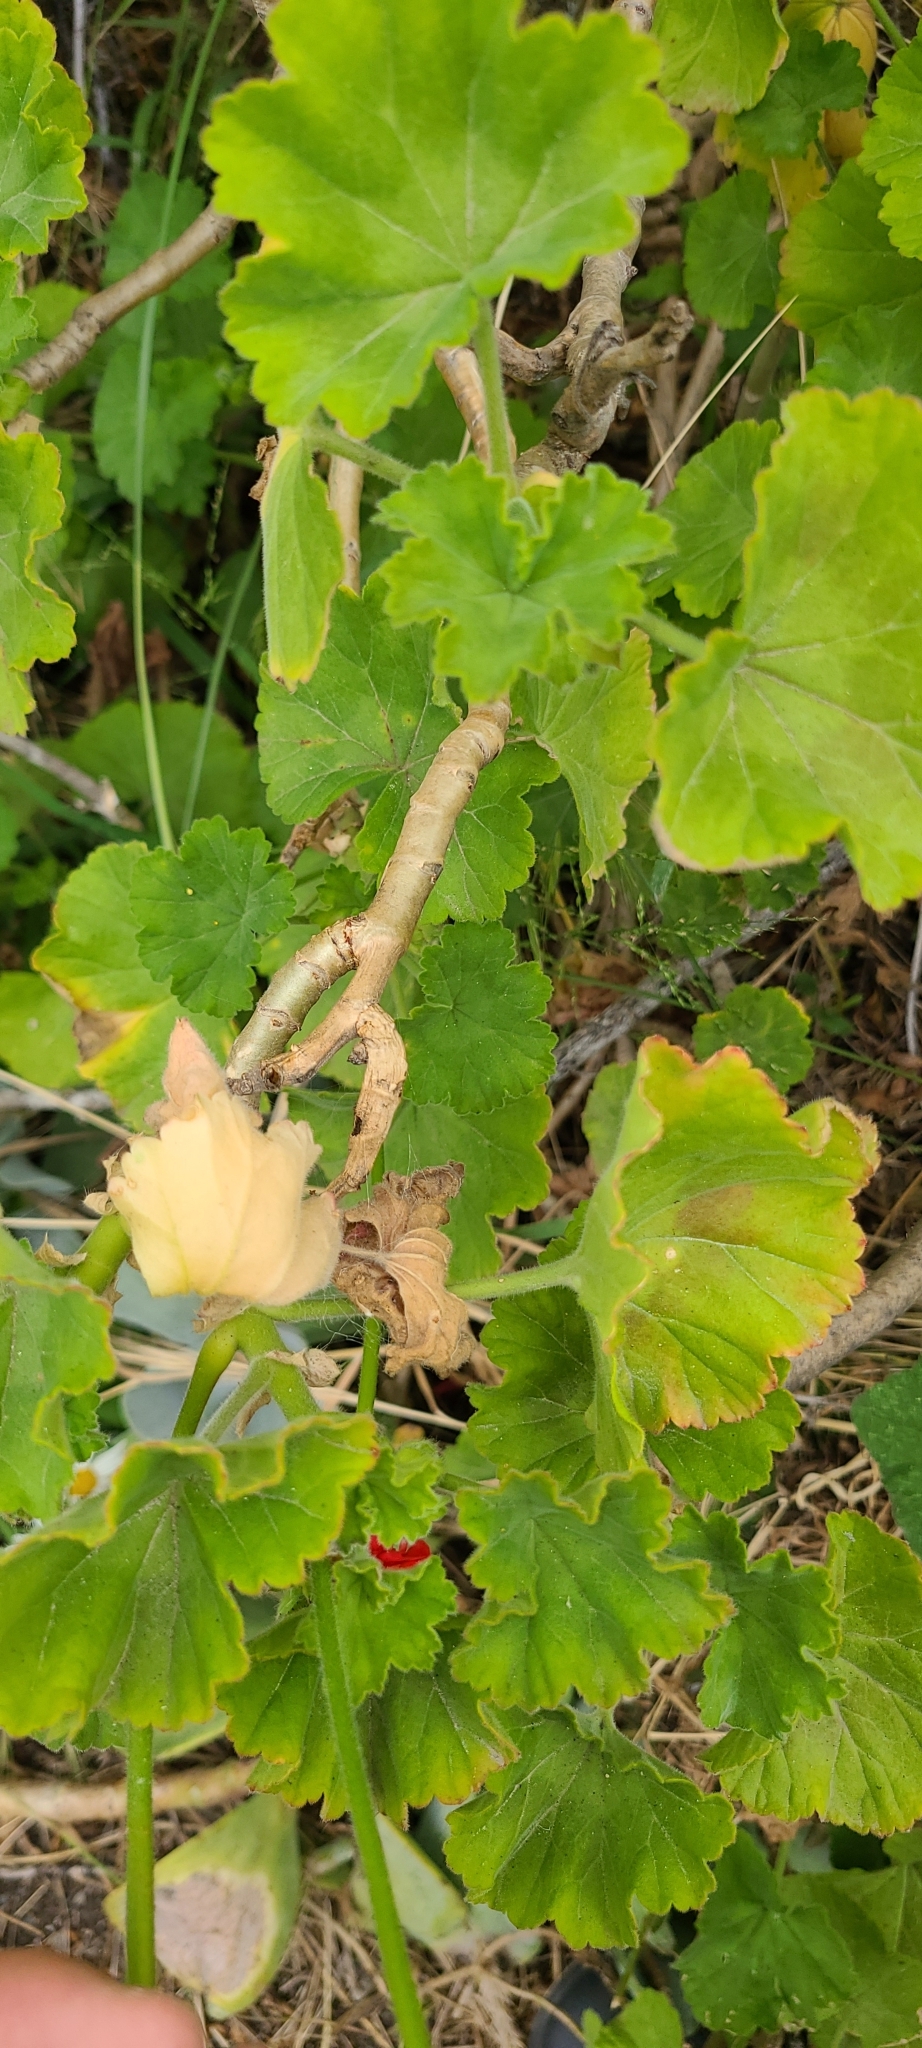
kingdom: Plantae
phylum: Tracheophyta
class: Magnoliopsida
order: Geraniales
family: Geraniaceae
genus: Pelargonium
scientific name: Pelargonium hybridum
